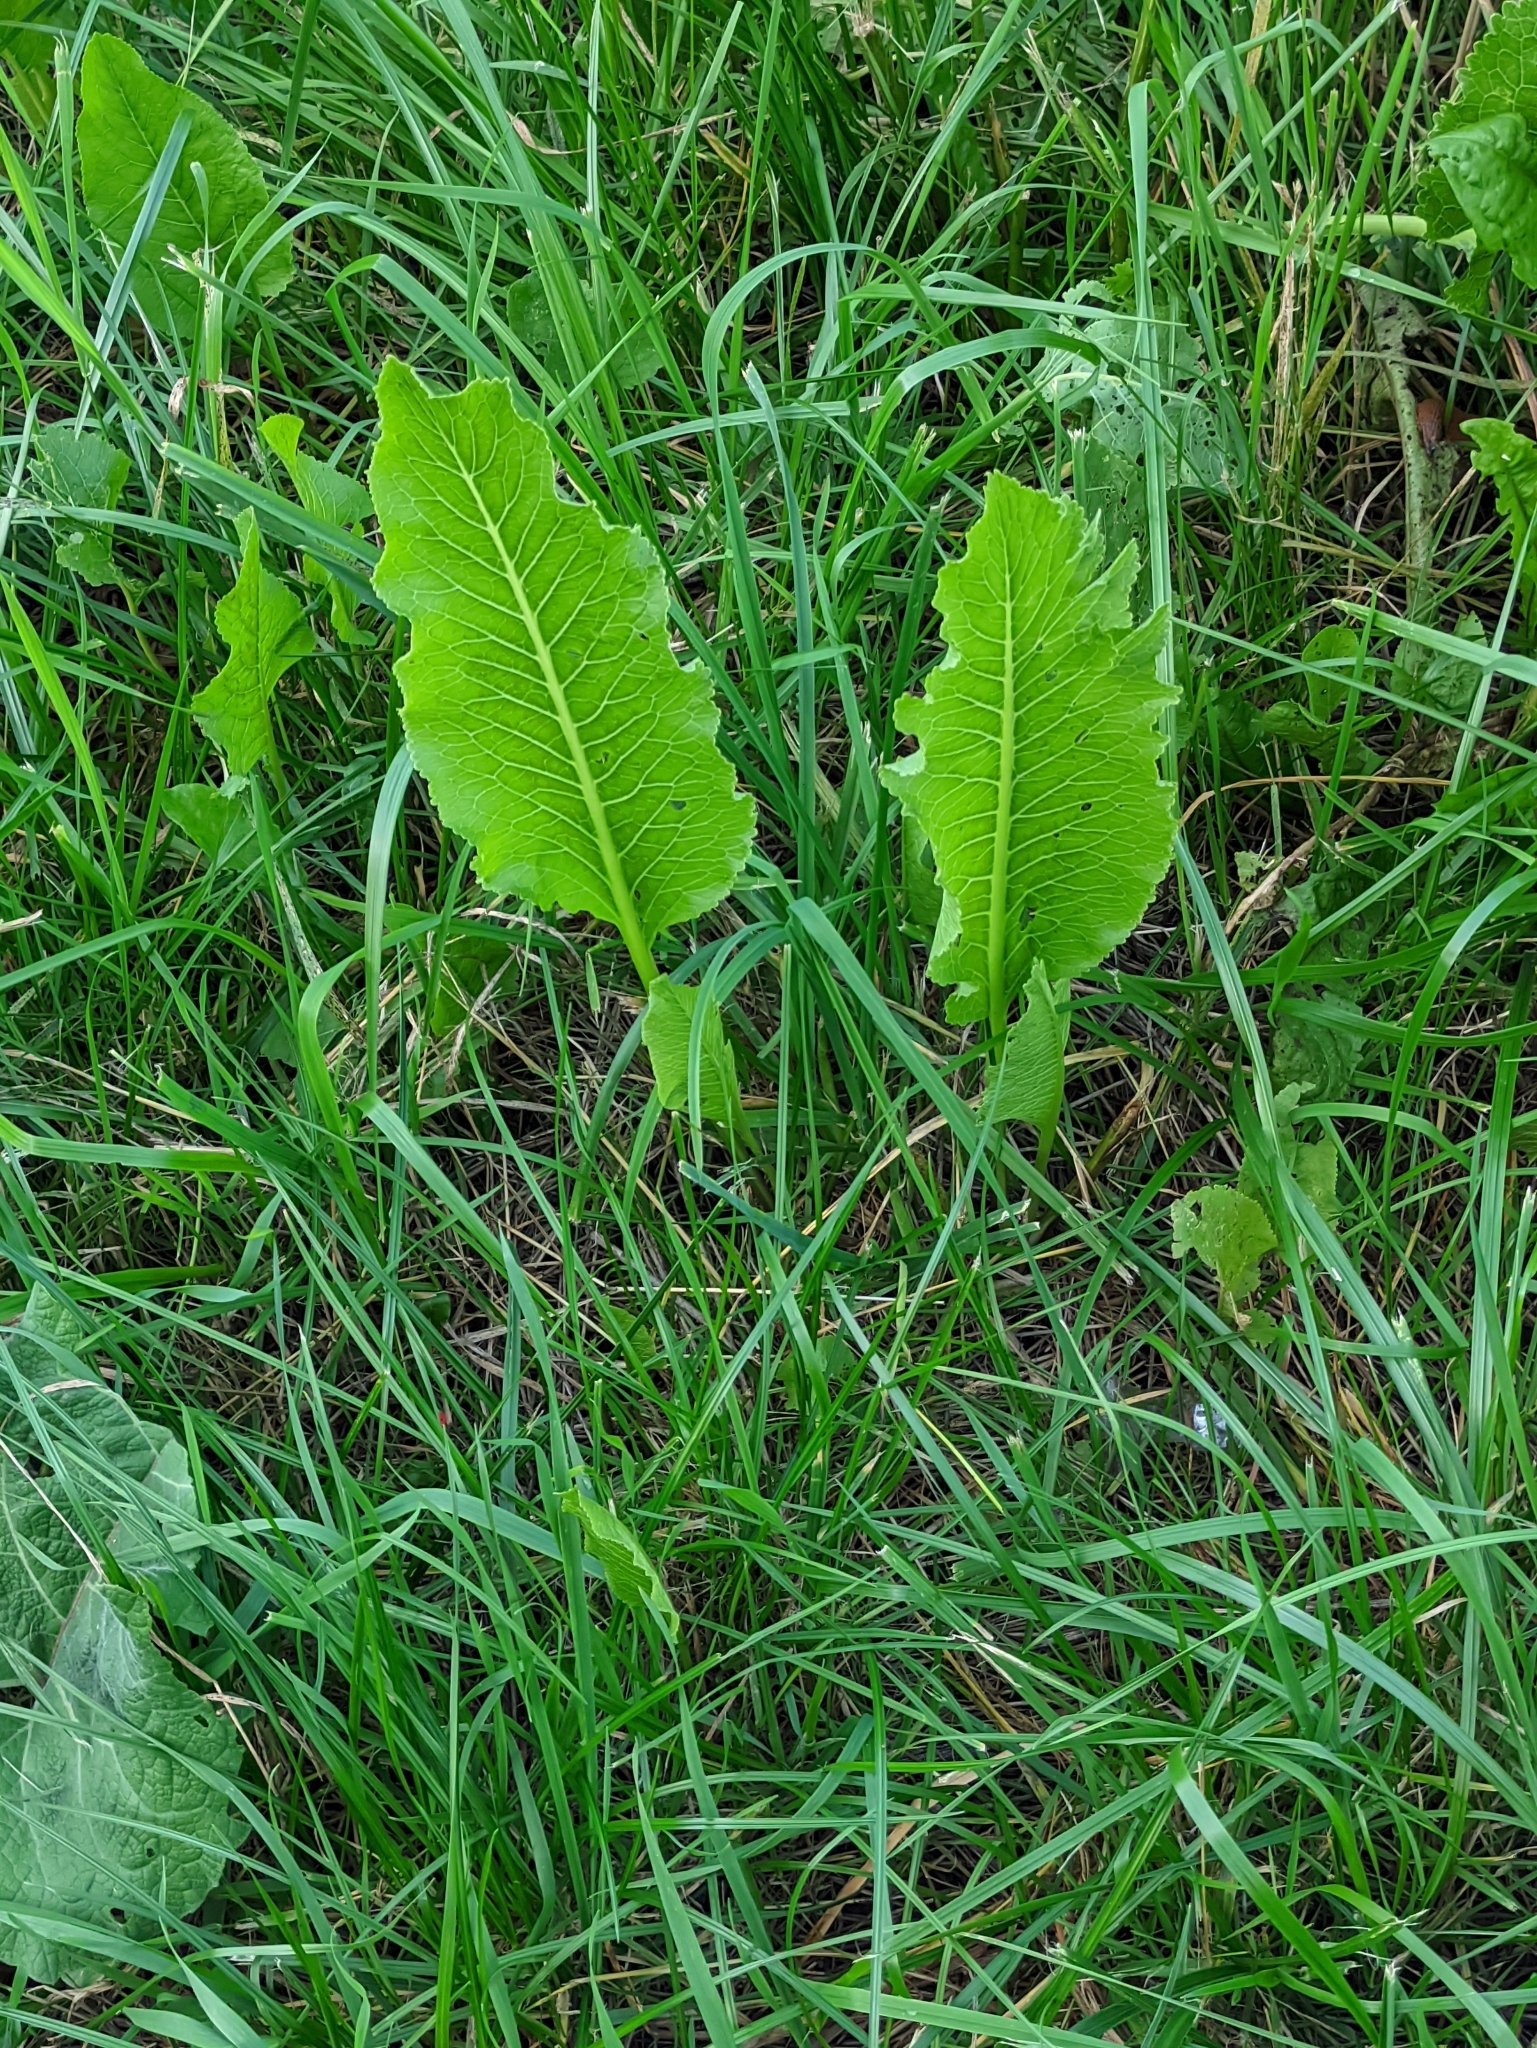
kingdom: Plantae
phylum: Tracheophyta
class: Magnoliopsida
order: Brassicales
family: Brassicaceae
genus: Armoracia
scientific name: Armoracia rusticana
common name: Horseradish
